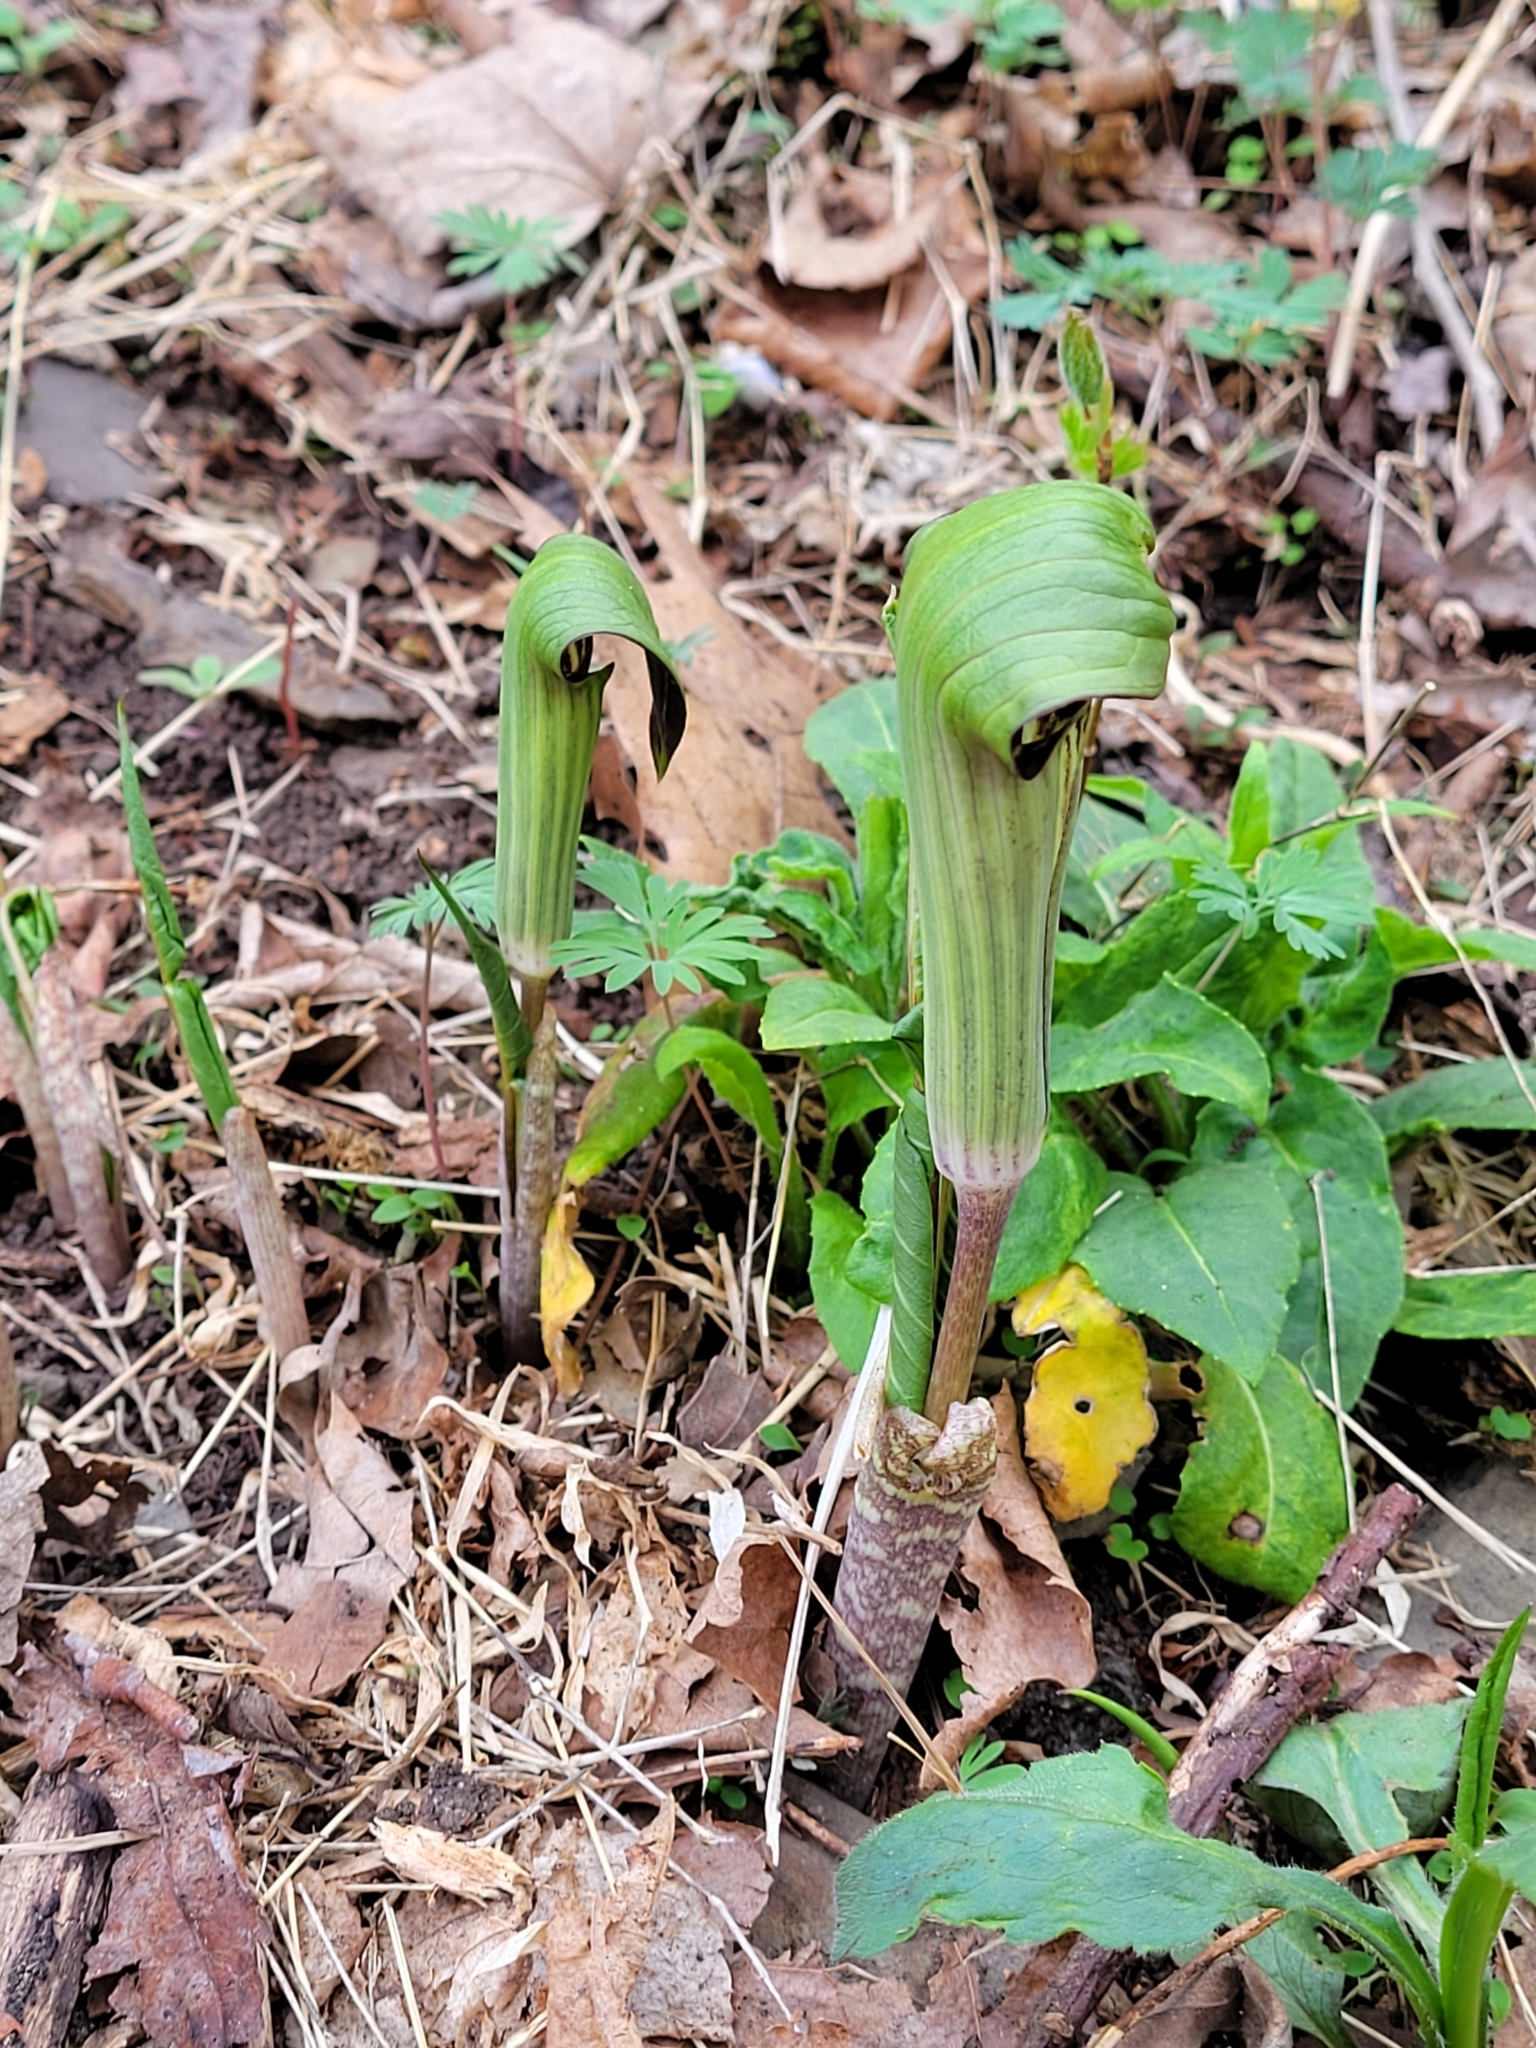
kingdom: Plantae
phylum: Tracheophyta
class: Liliopsida
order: Alismatales
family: Araceae
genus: Arisaema
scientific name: Arisaema triphyllum
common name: Jack-in-the-pulpit
